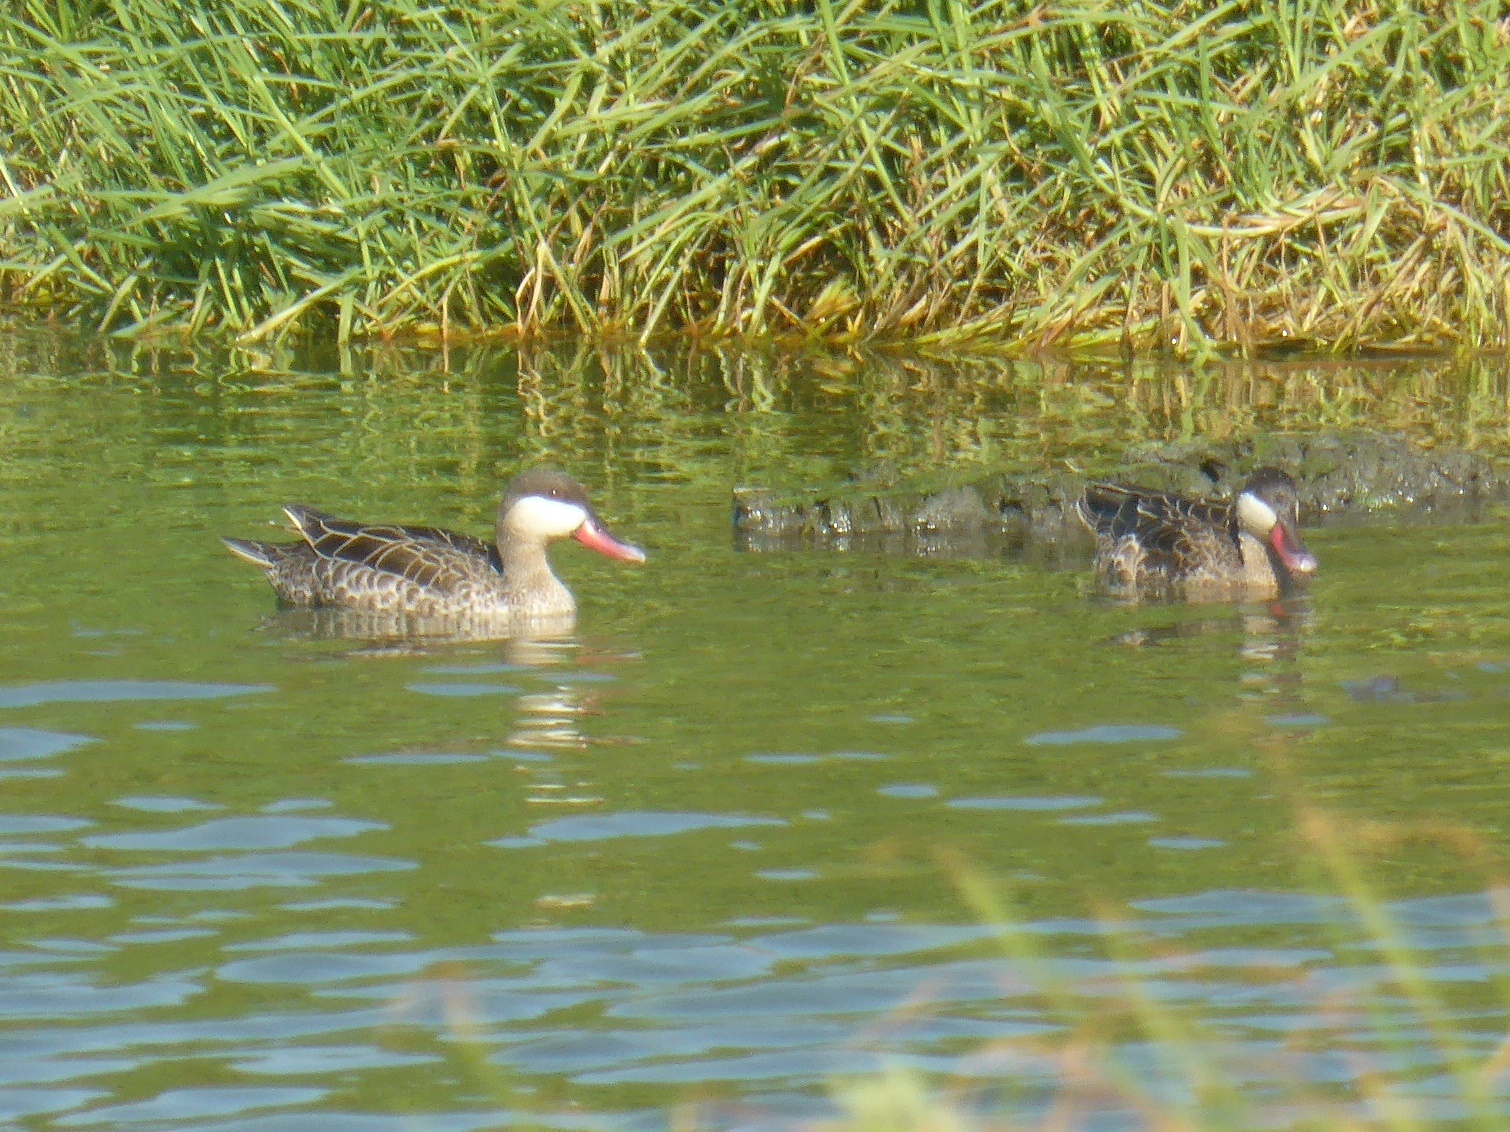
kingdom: Animalia
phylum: Chordata
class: Aves
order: Anseriformes
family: Anatidae
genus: Anas
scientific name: Anas erythrorhyncha
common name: Red-billed teal
